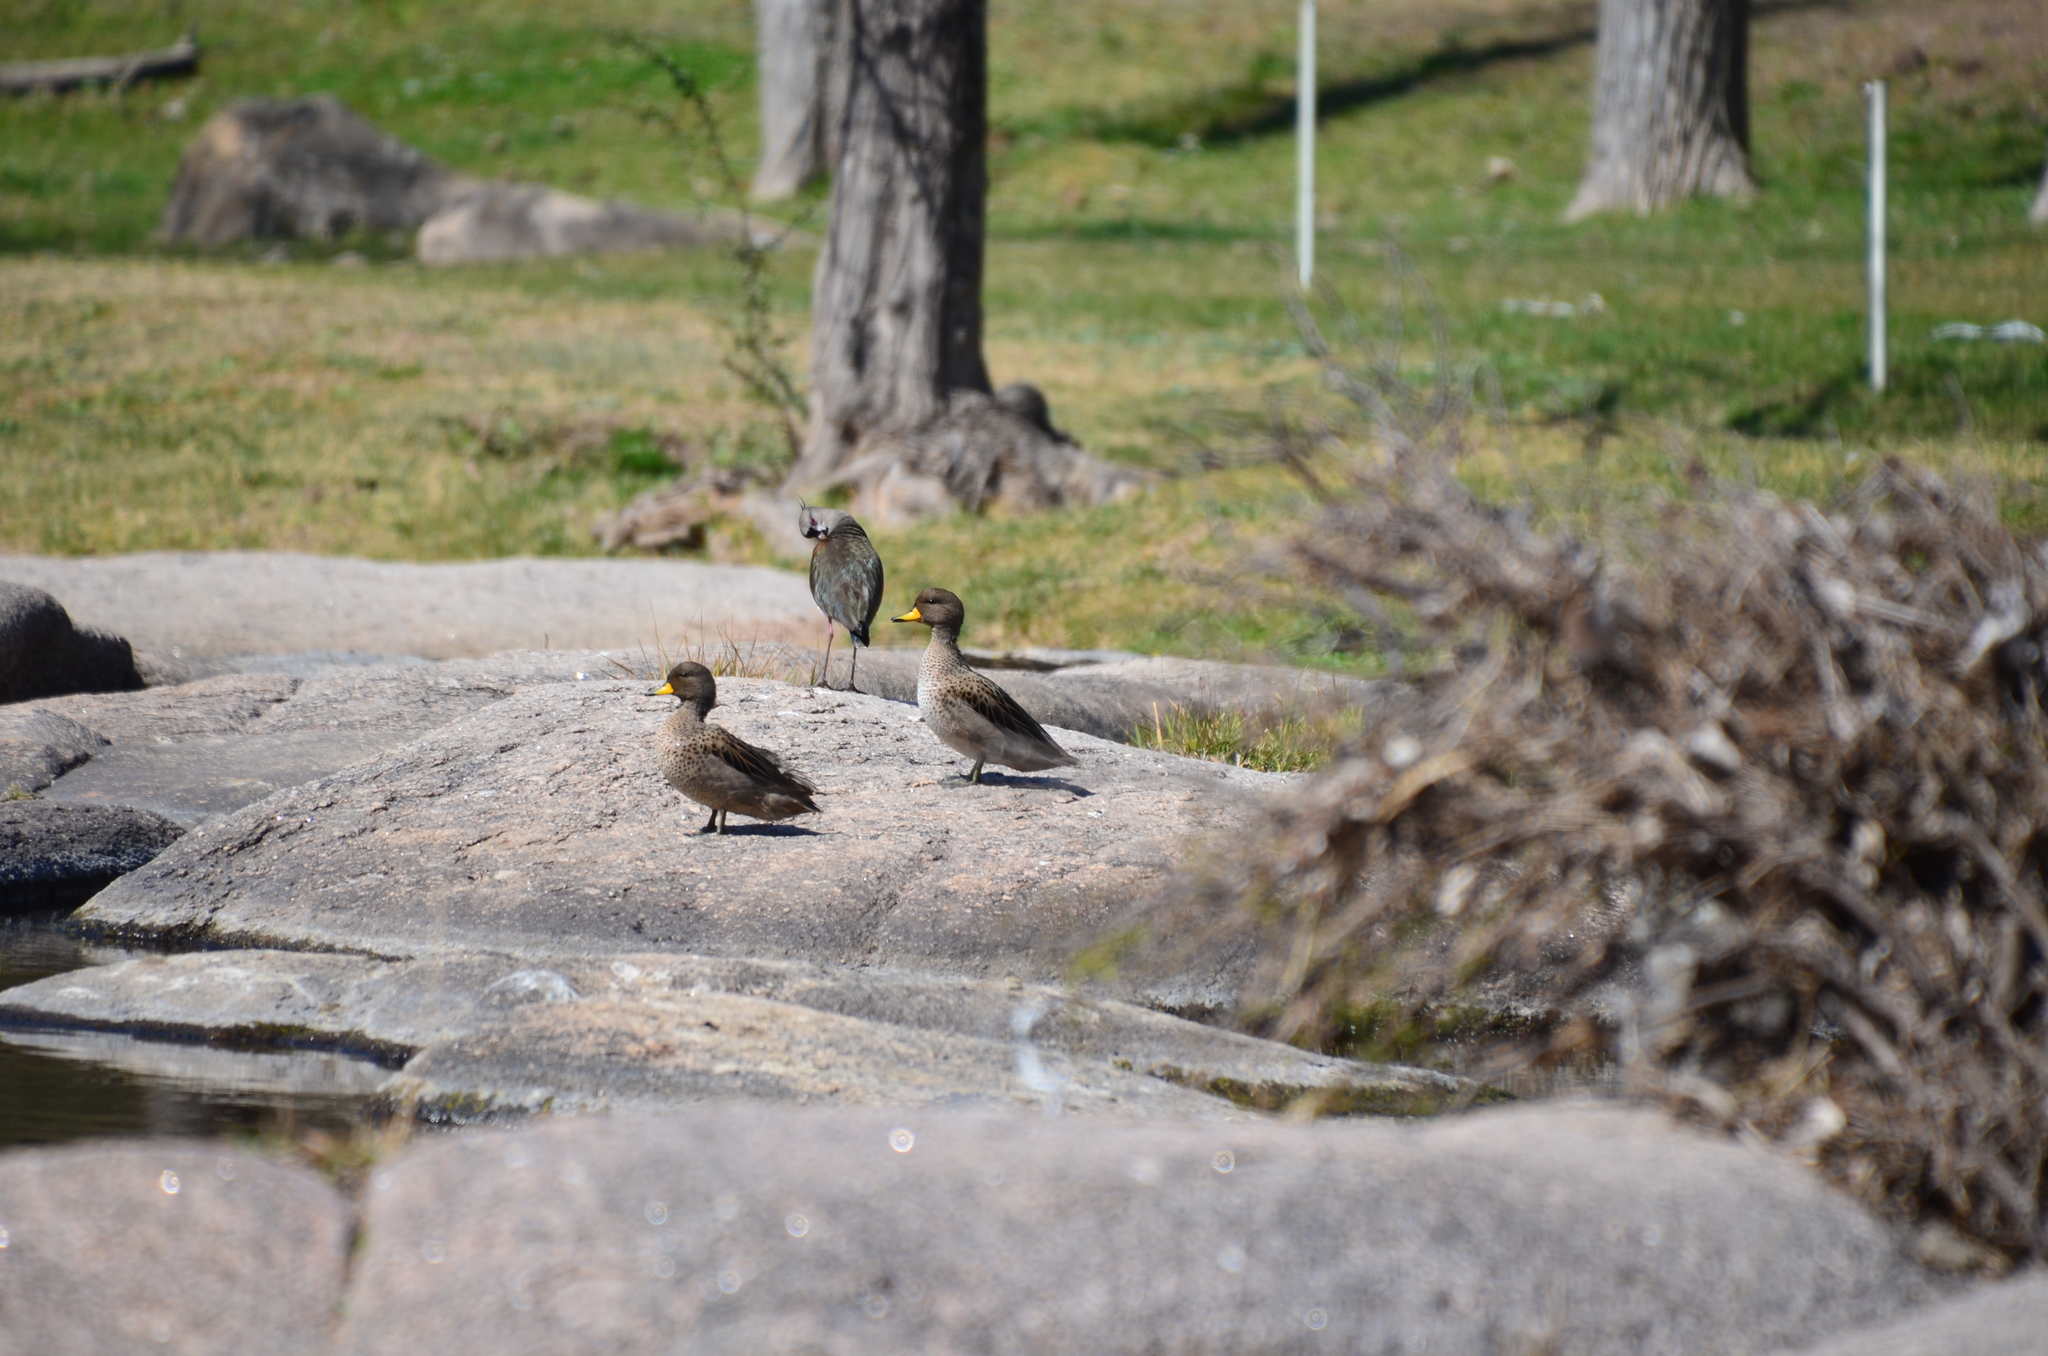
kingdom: Animalia
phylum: Chordata
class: Aves
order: Anseriformes
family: Anatidae
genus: Anas
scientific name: Anas flavirostris
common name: Yellow-billed teal
